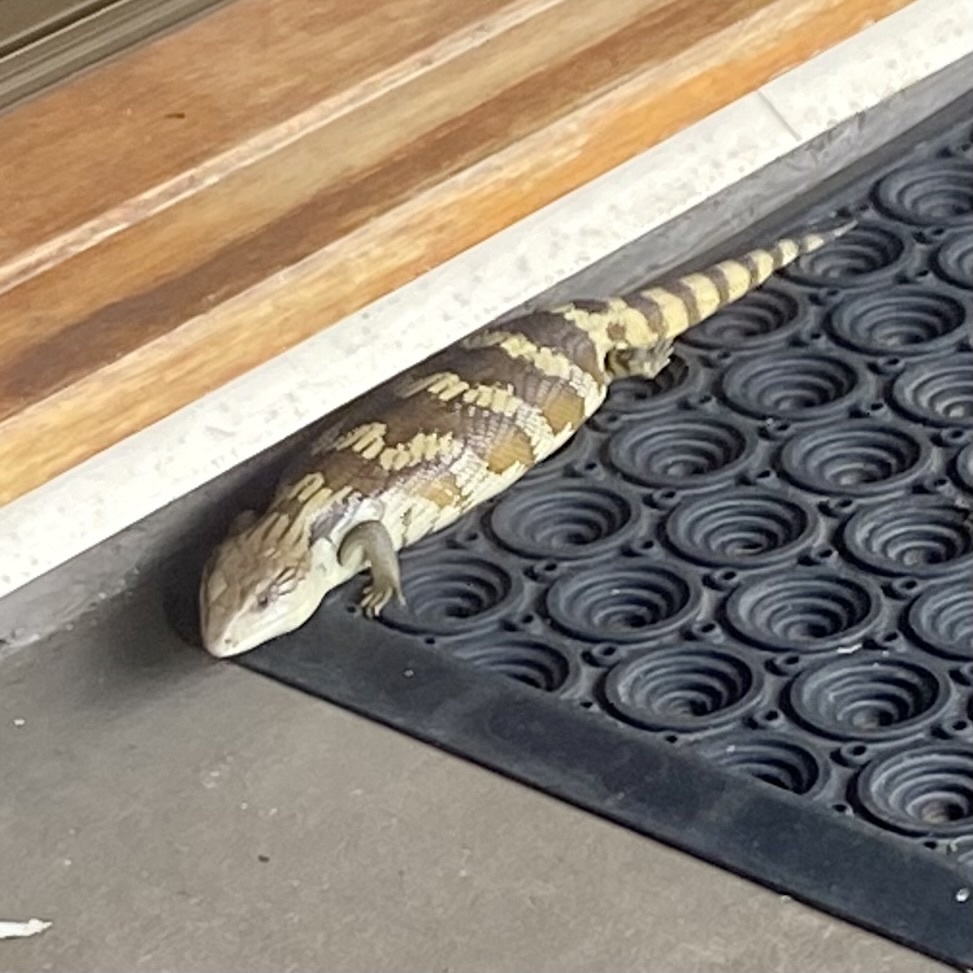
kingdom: Animalia
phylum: Chordata
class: Squamata
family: Scincidae
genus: Tiliqua
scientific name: Tiliqua scincoides
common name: Common bluetongue
